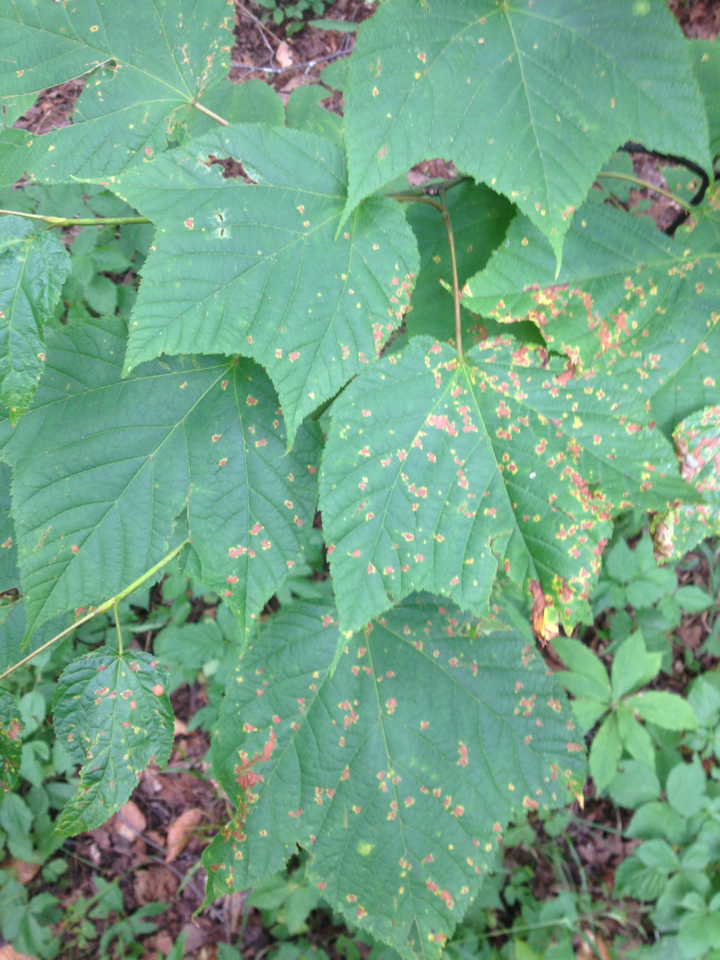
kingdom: Plantae
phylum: Tracheophyta
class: Magnoliopsida
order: Sapindales
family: Sapindaceae
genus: Acer
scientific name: Acer pensylvanicum
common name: Moosewood
